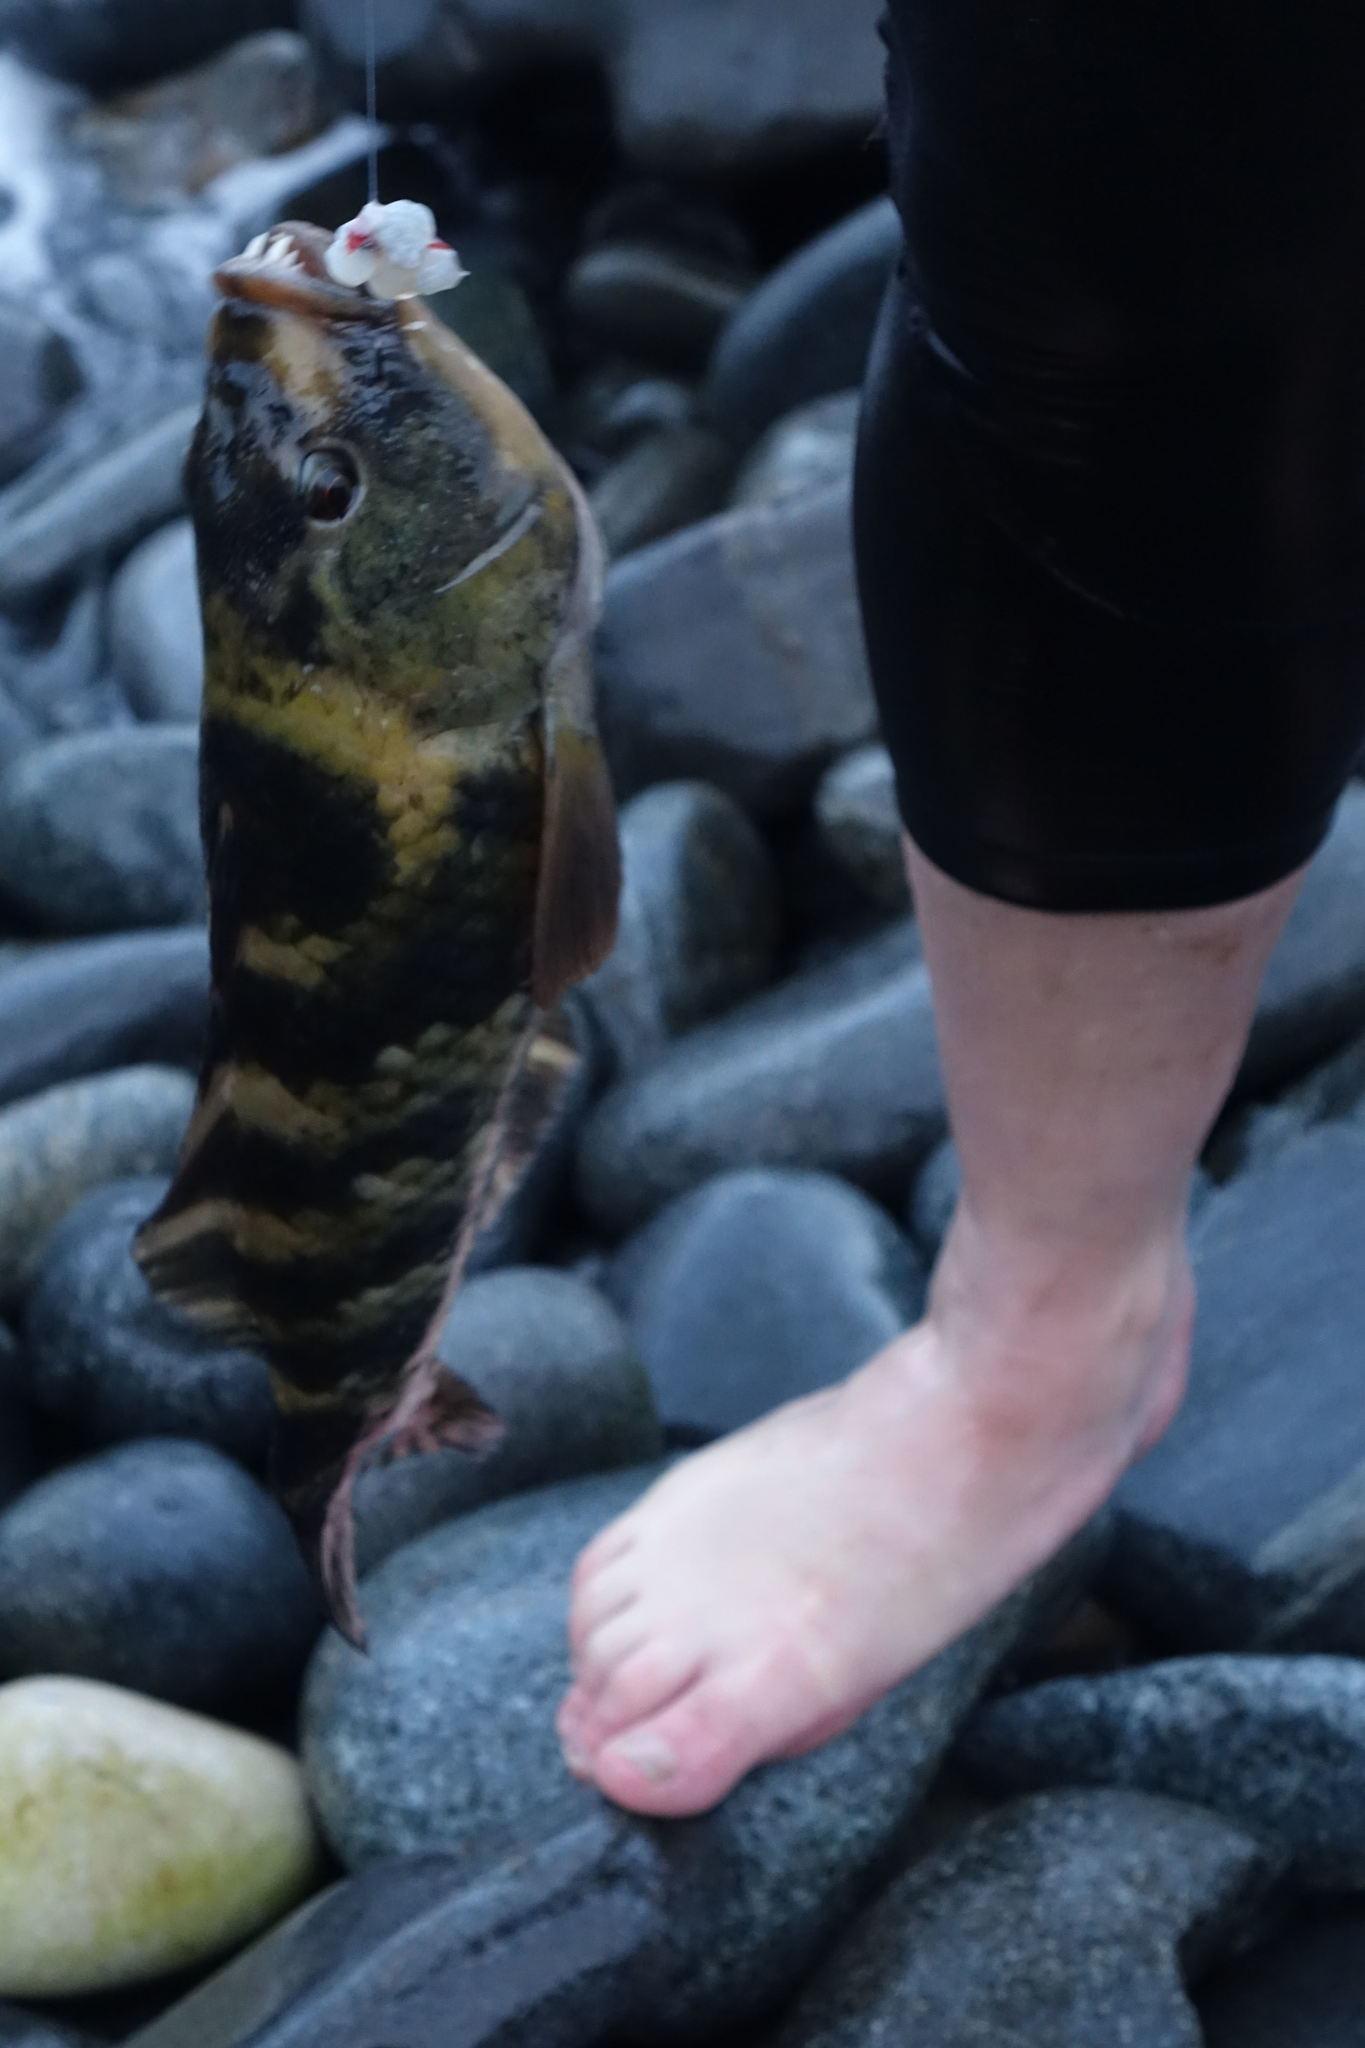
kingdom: Animalia
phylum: Chordata
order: Perciformes
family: Labridae
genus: Notolabrus
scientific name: Notolabrus fucicola
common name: Banded parrotfish
